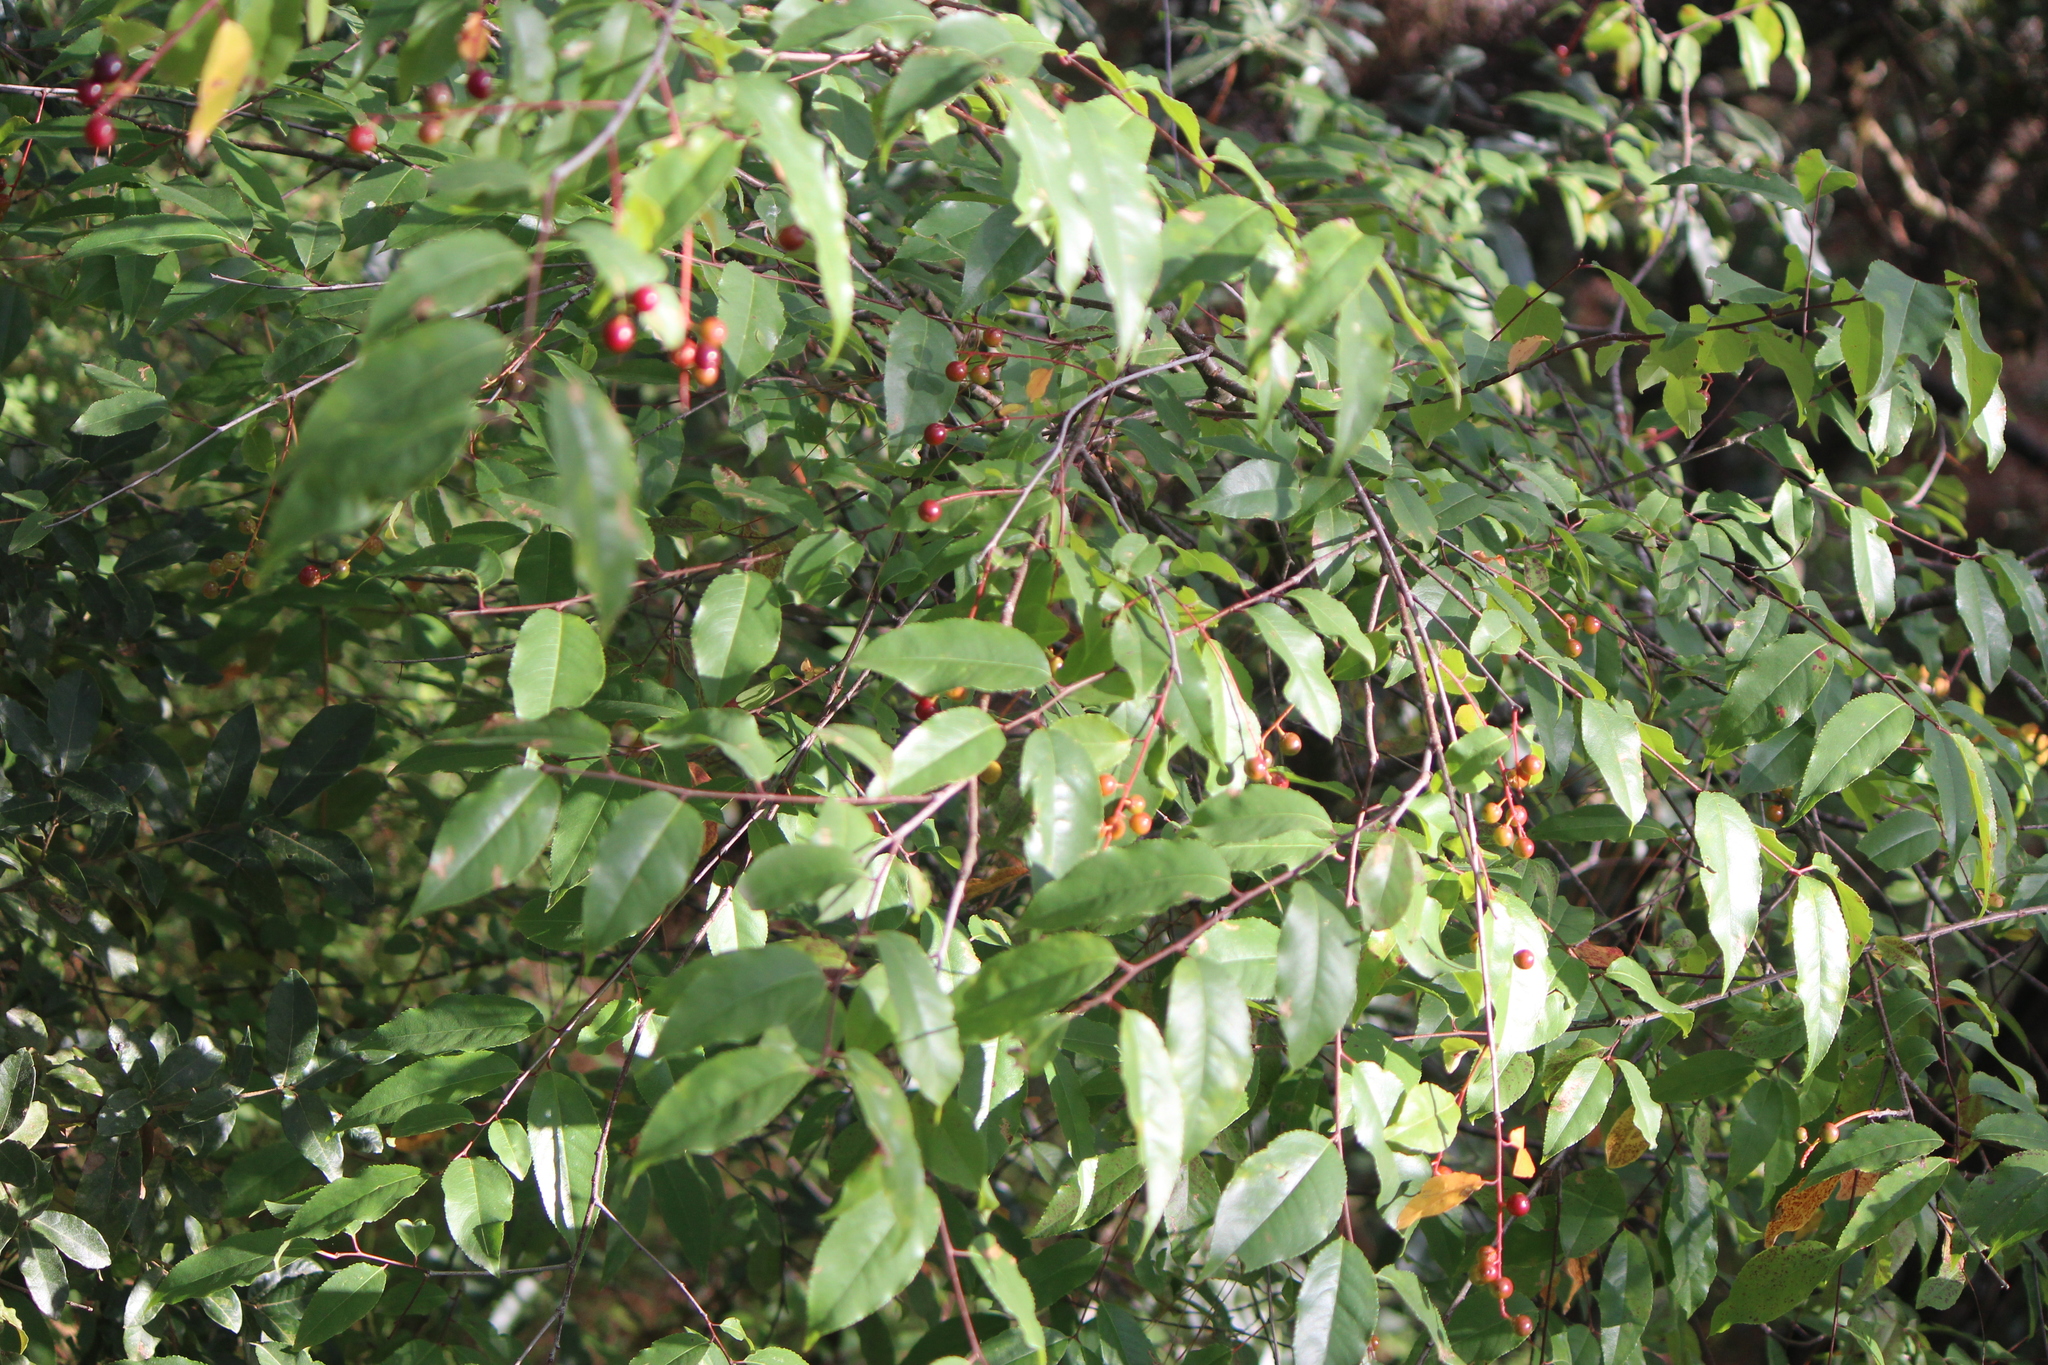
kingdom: Plantae
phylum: Tracheophyta
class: Magnoliopsida
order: Rosales
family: Rosaceae
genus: Prunus
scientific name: Prunus serotina
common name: Black cherry
